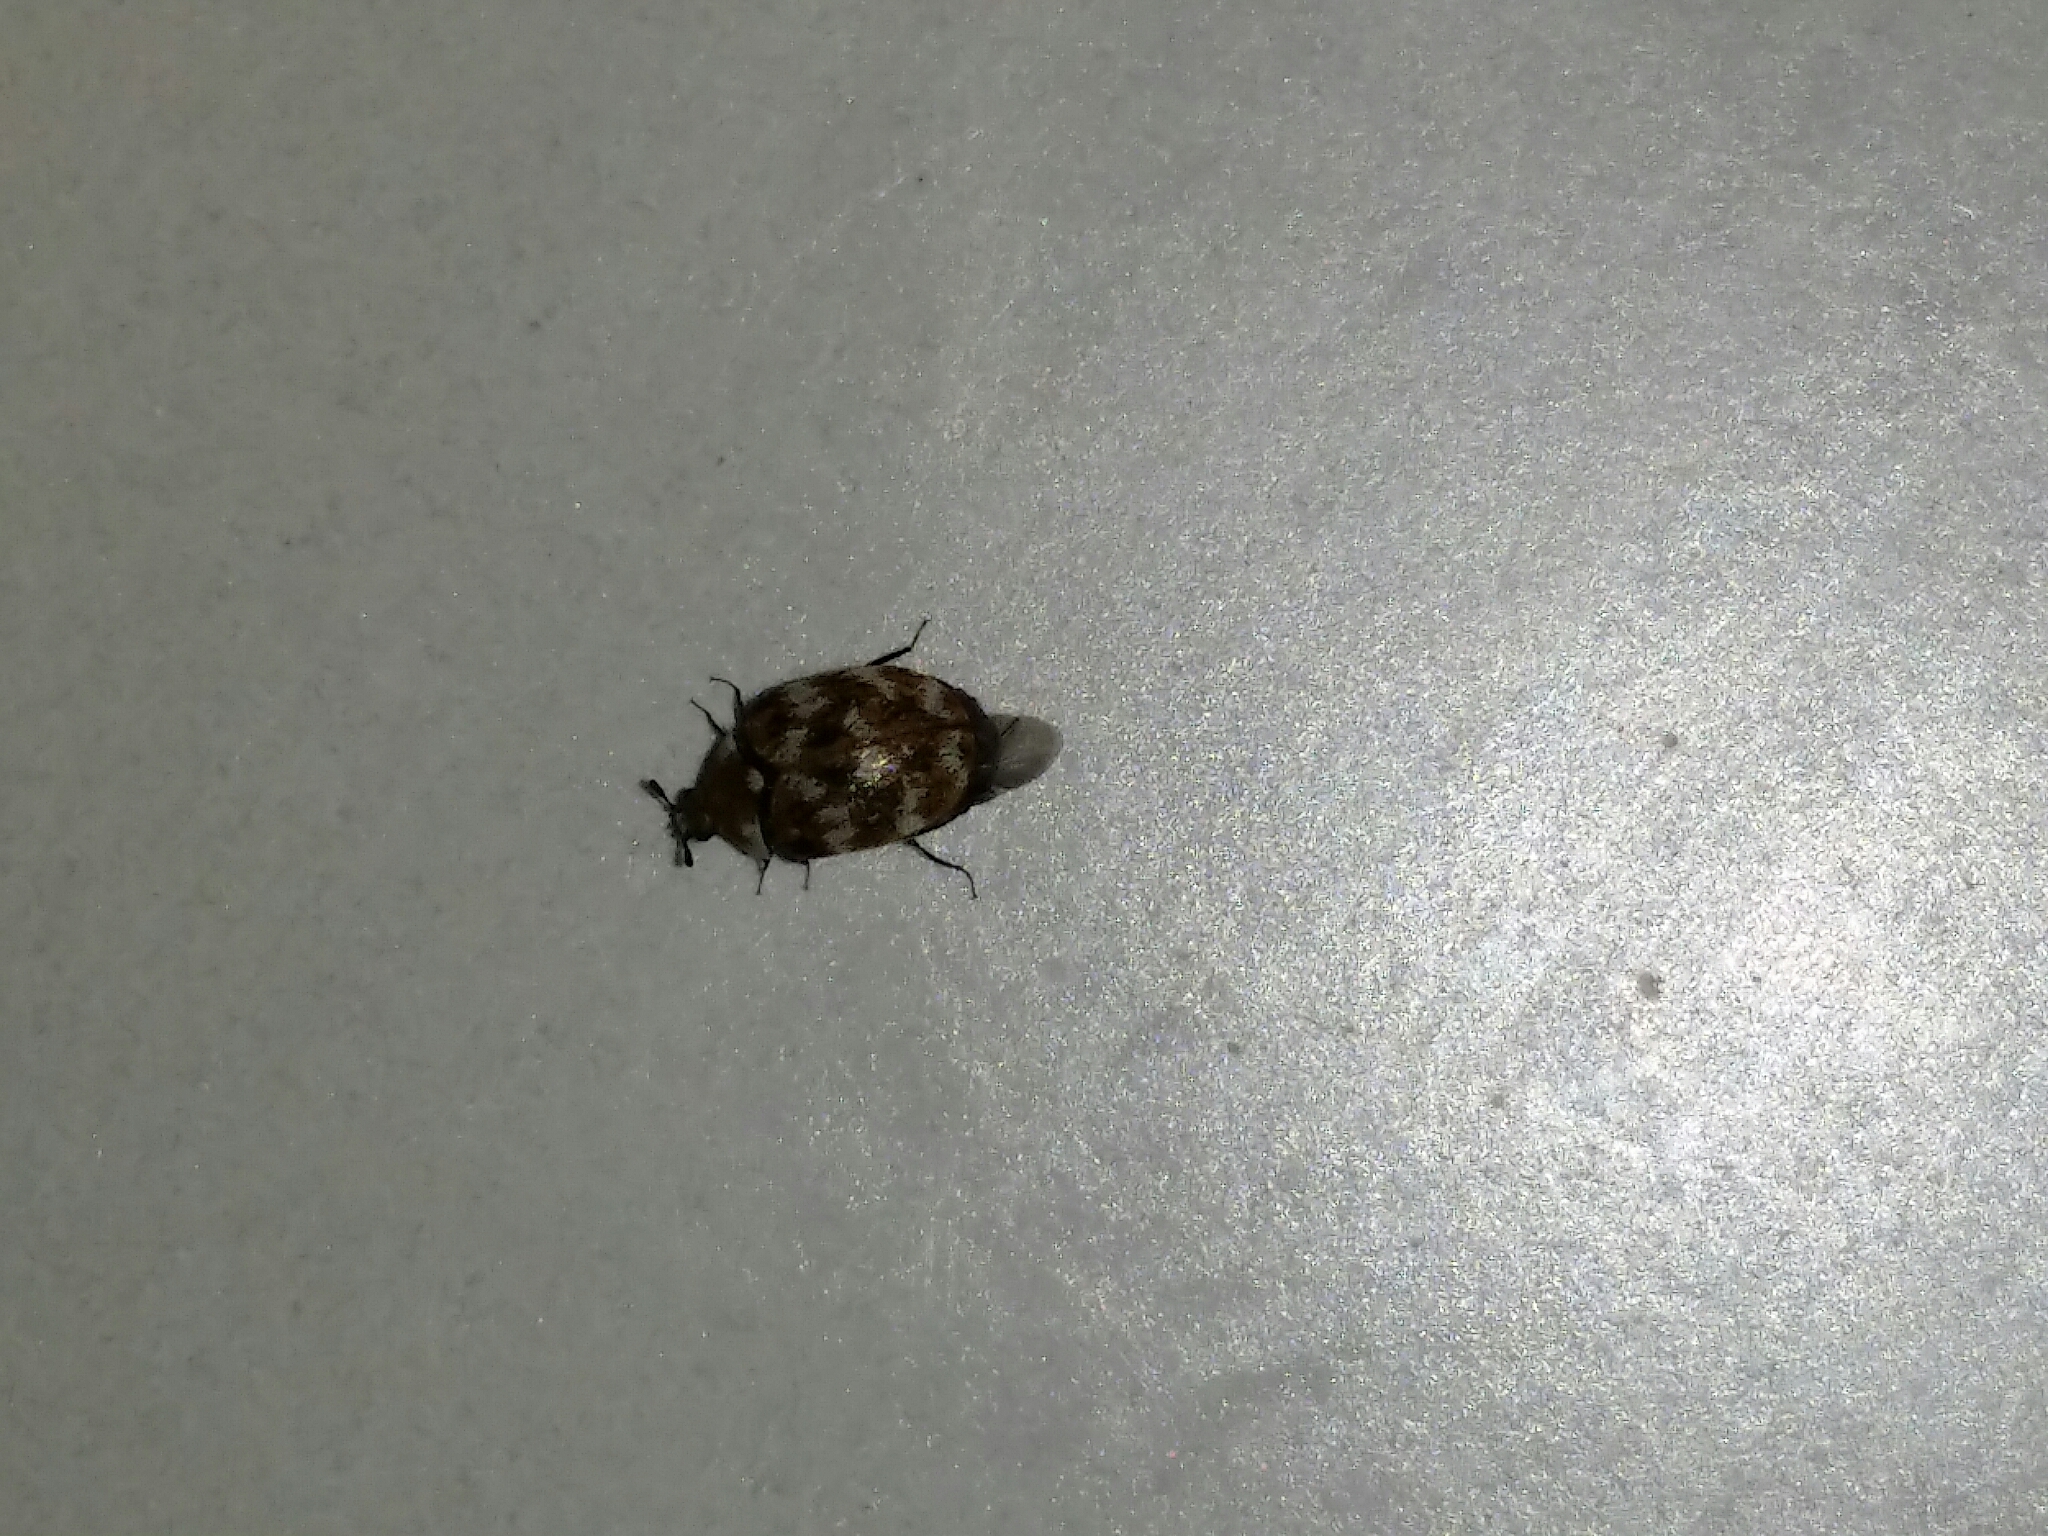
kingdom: Animalia
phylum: Arthropoda
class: Insecta
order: Coleoptera
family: Dermestidae
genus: Anthrenus
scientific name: Anthrenus verbasci
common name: Varied carpet beetle
